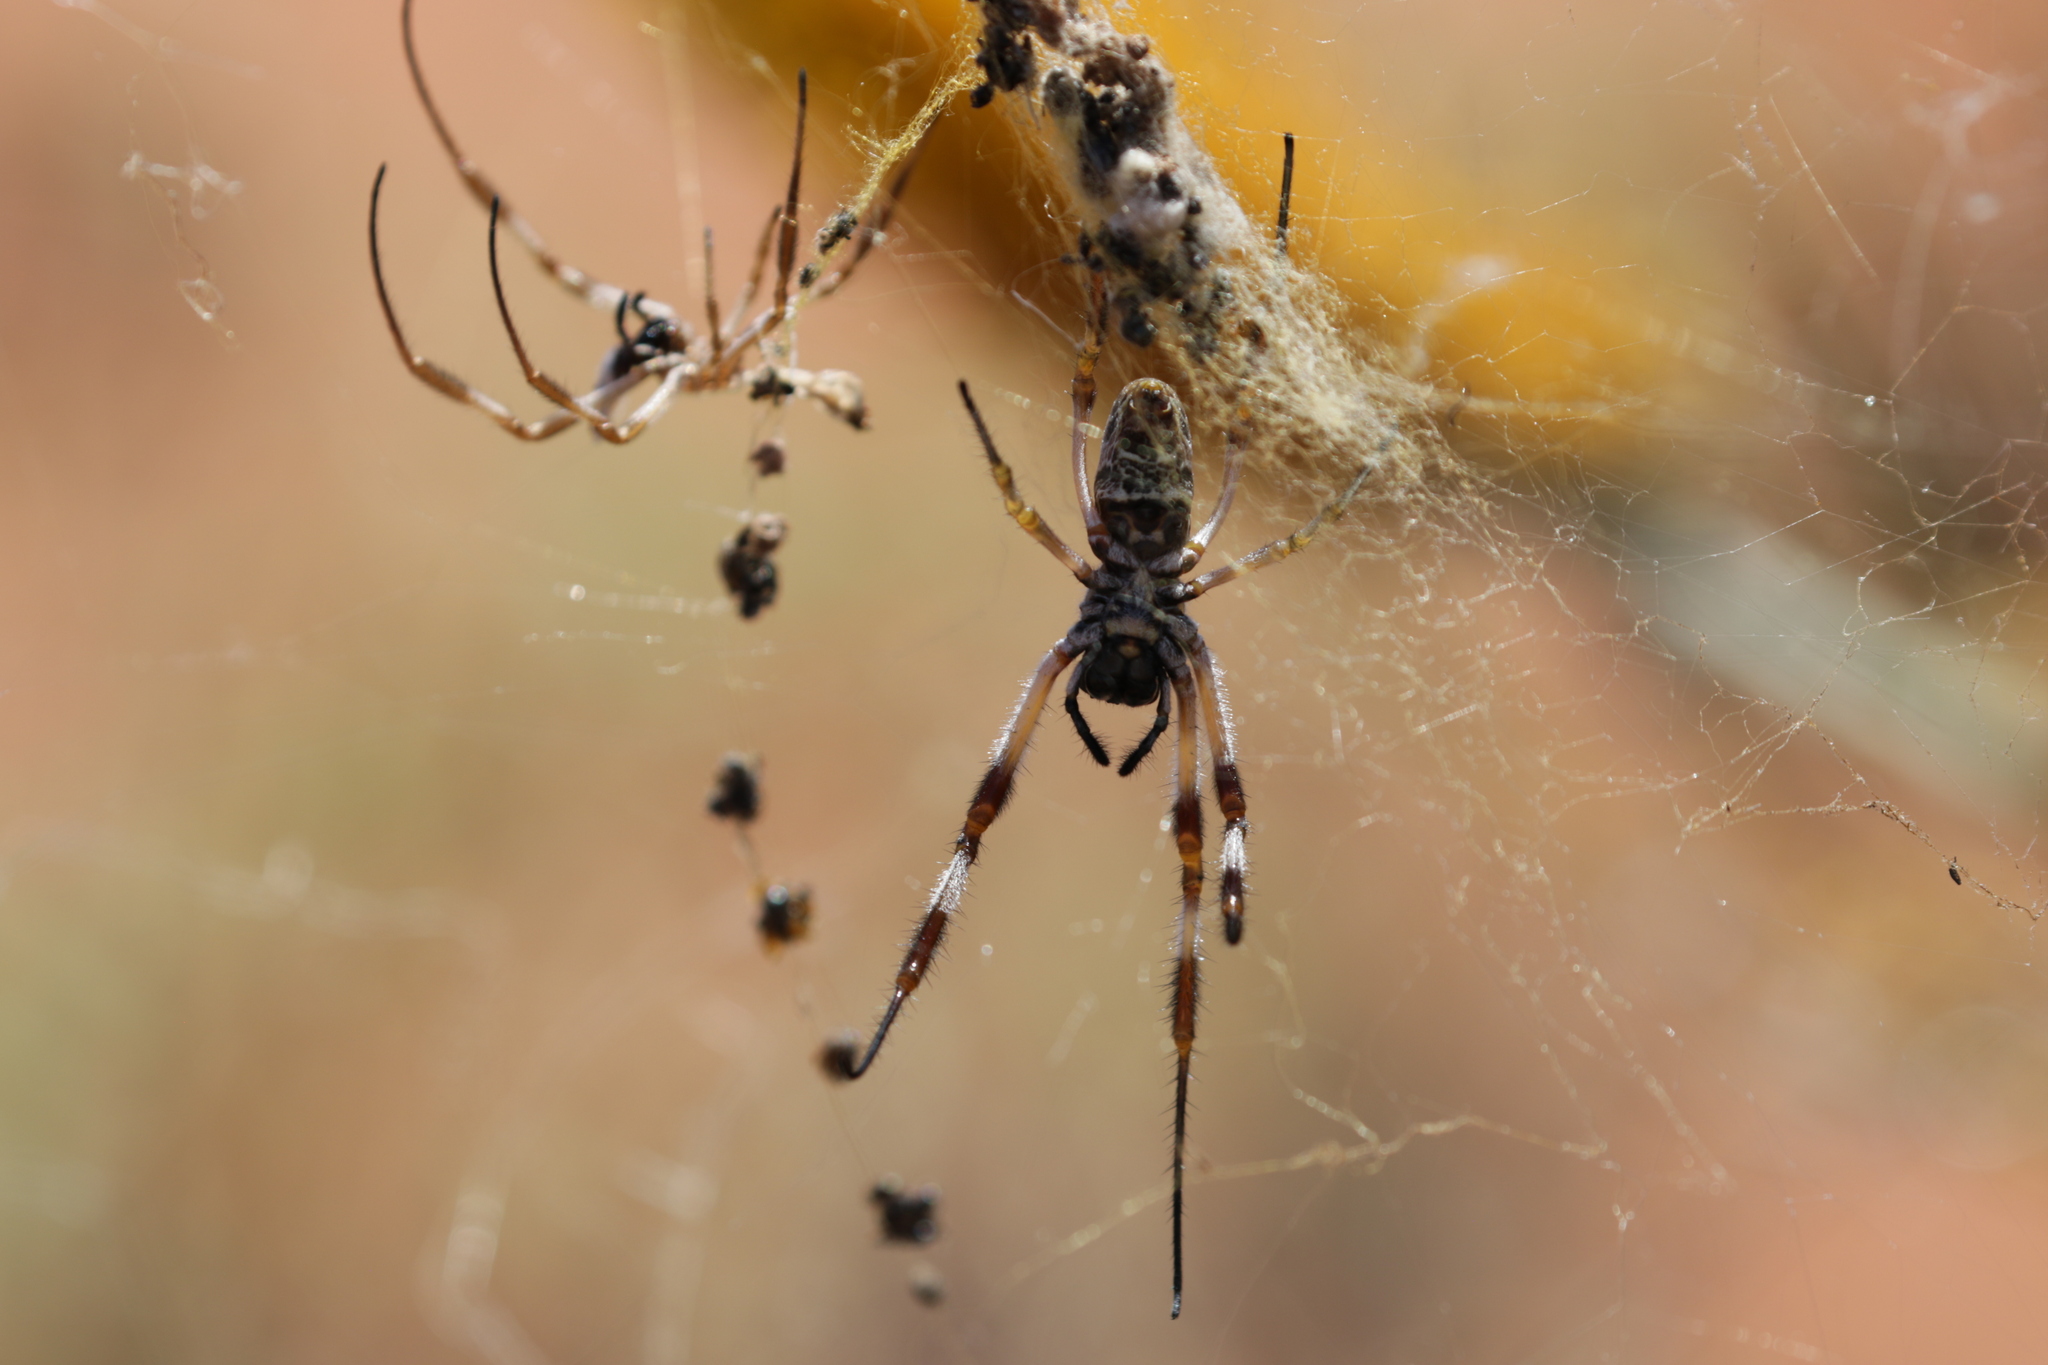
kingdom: Animalia
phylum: Arthropoda
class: Arachnida
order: Araneae
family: Araneidae
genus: Trichonephila
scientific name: Trichonephila edulis
